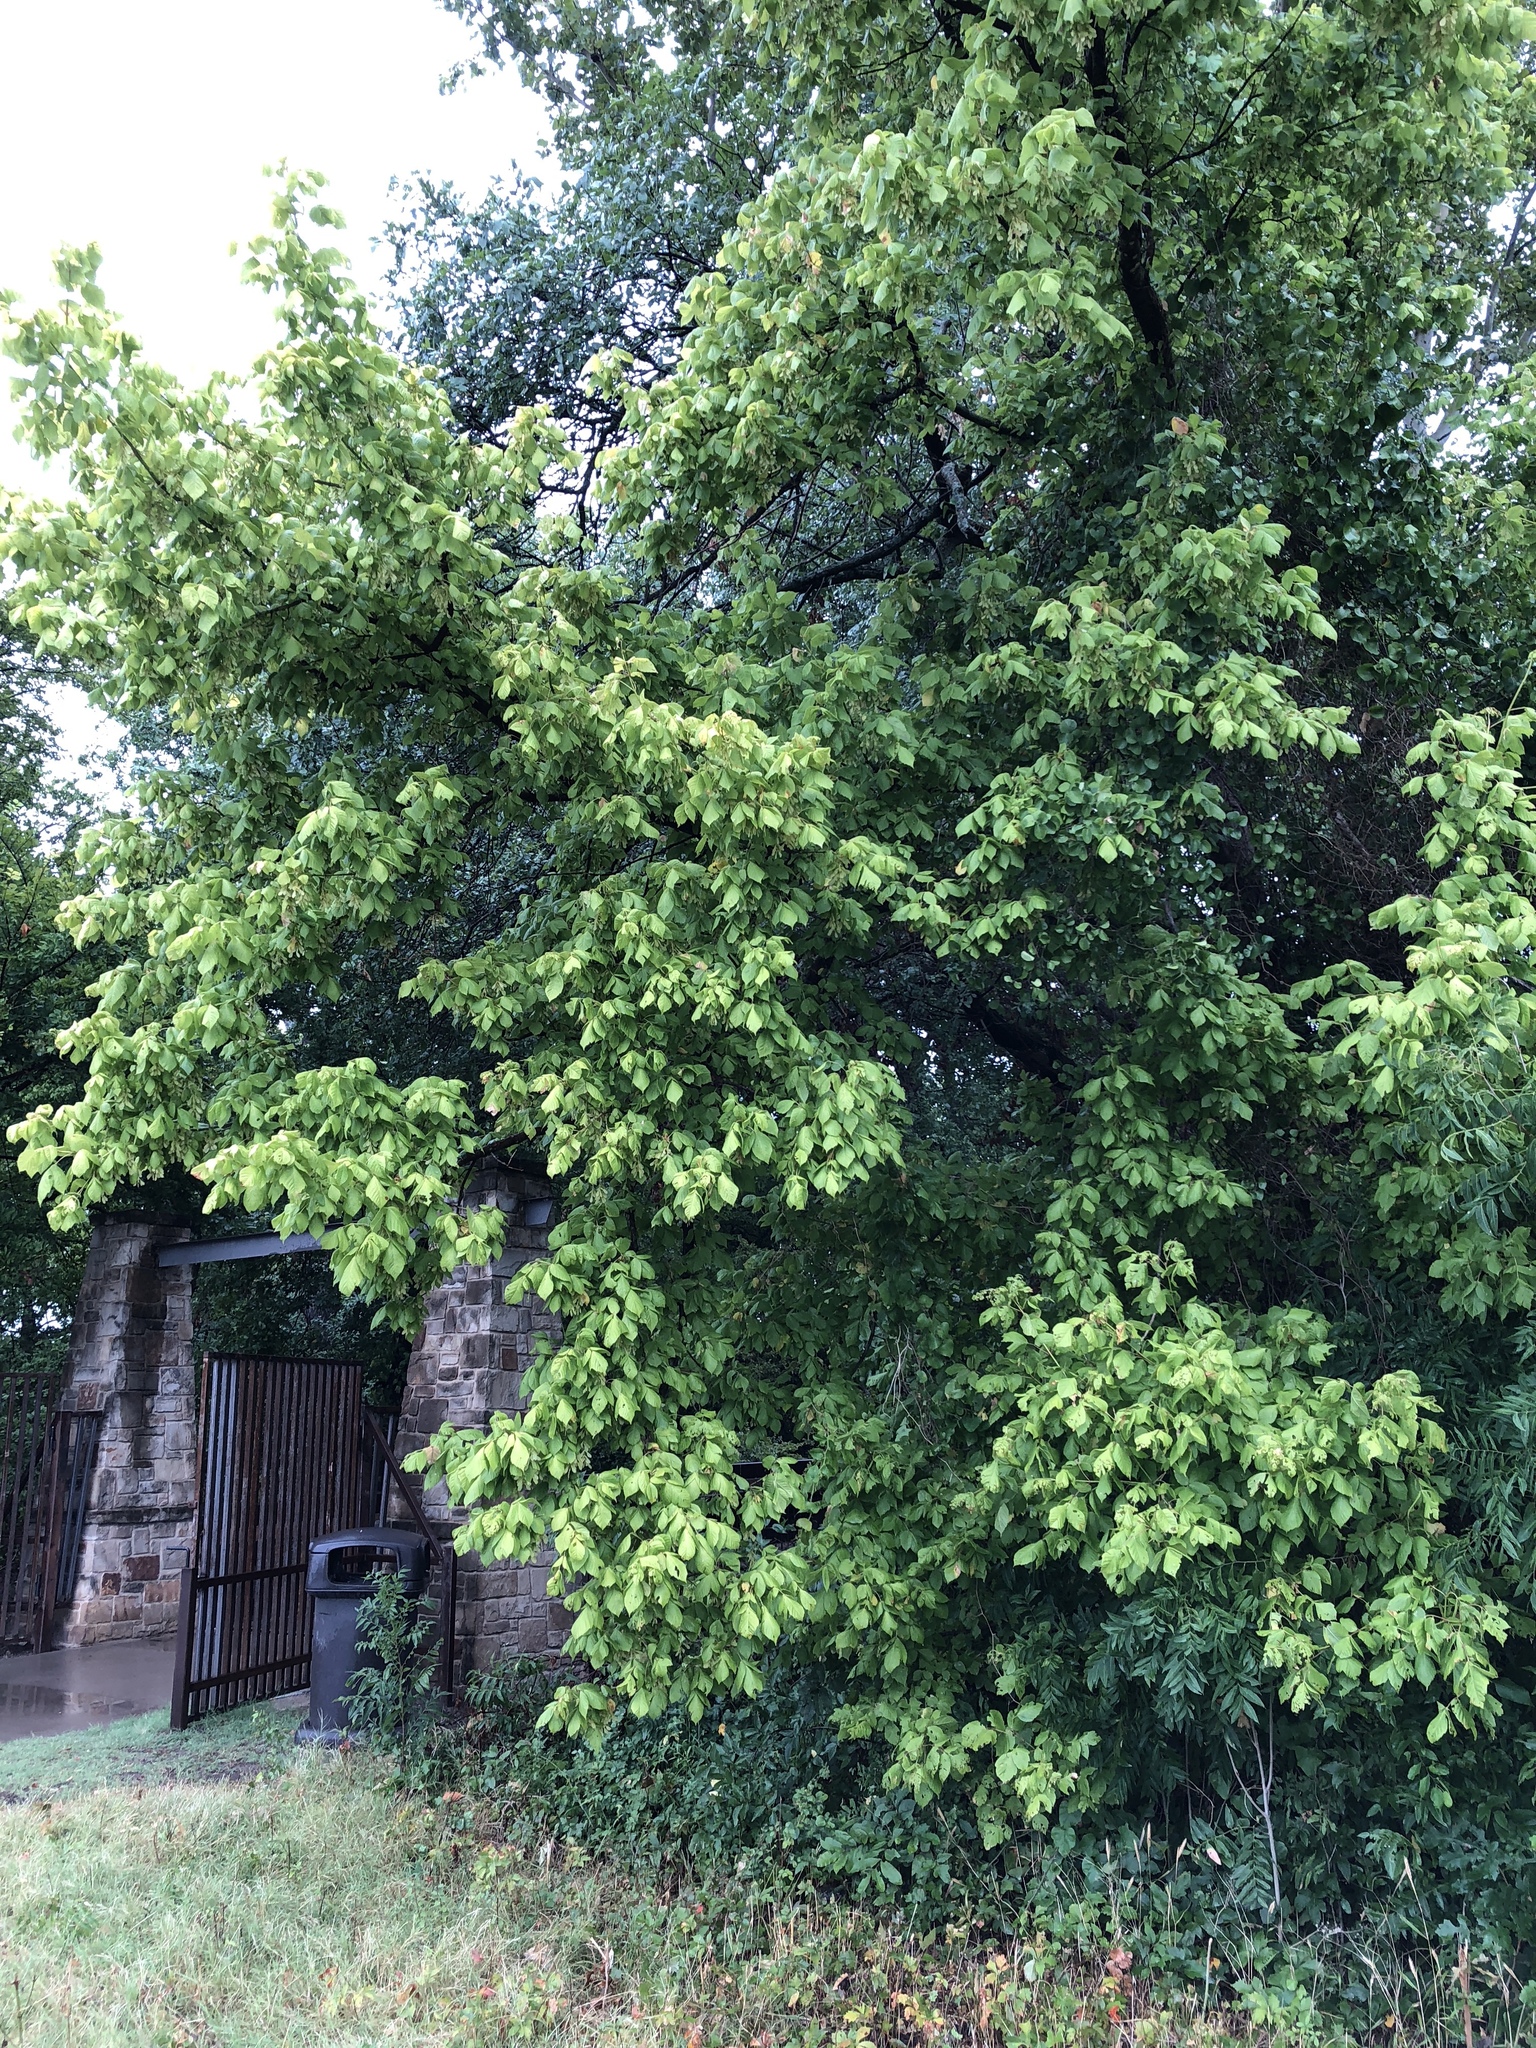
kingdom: Plantae
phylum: Tracheophyta
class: Magnoliopsida
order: Sapindales
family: Sapindaceae
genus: Acer
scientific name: Acer negundo
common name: Ashleaf maple
